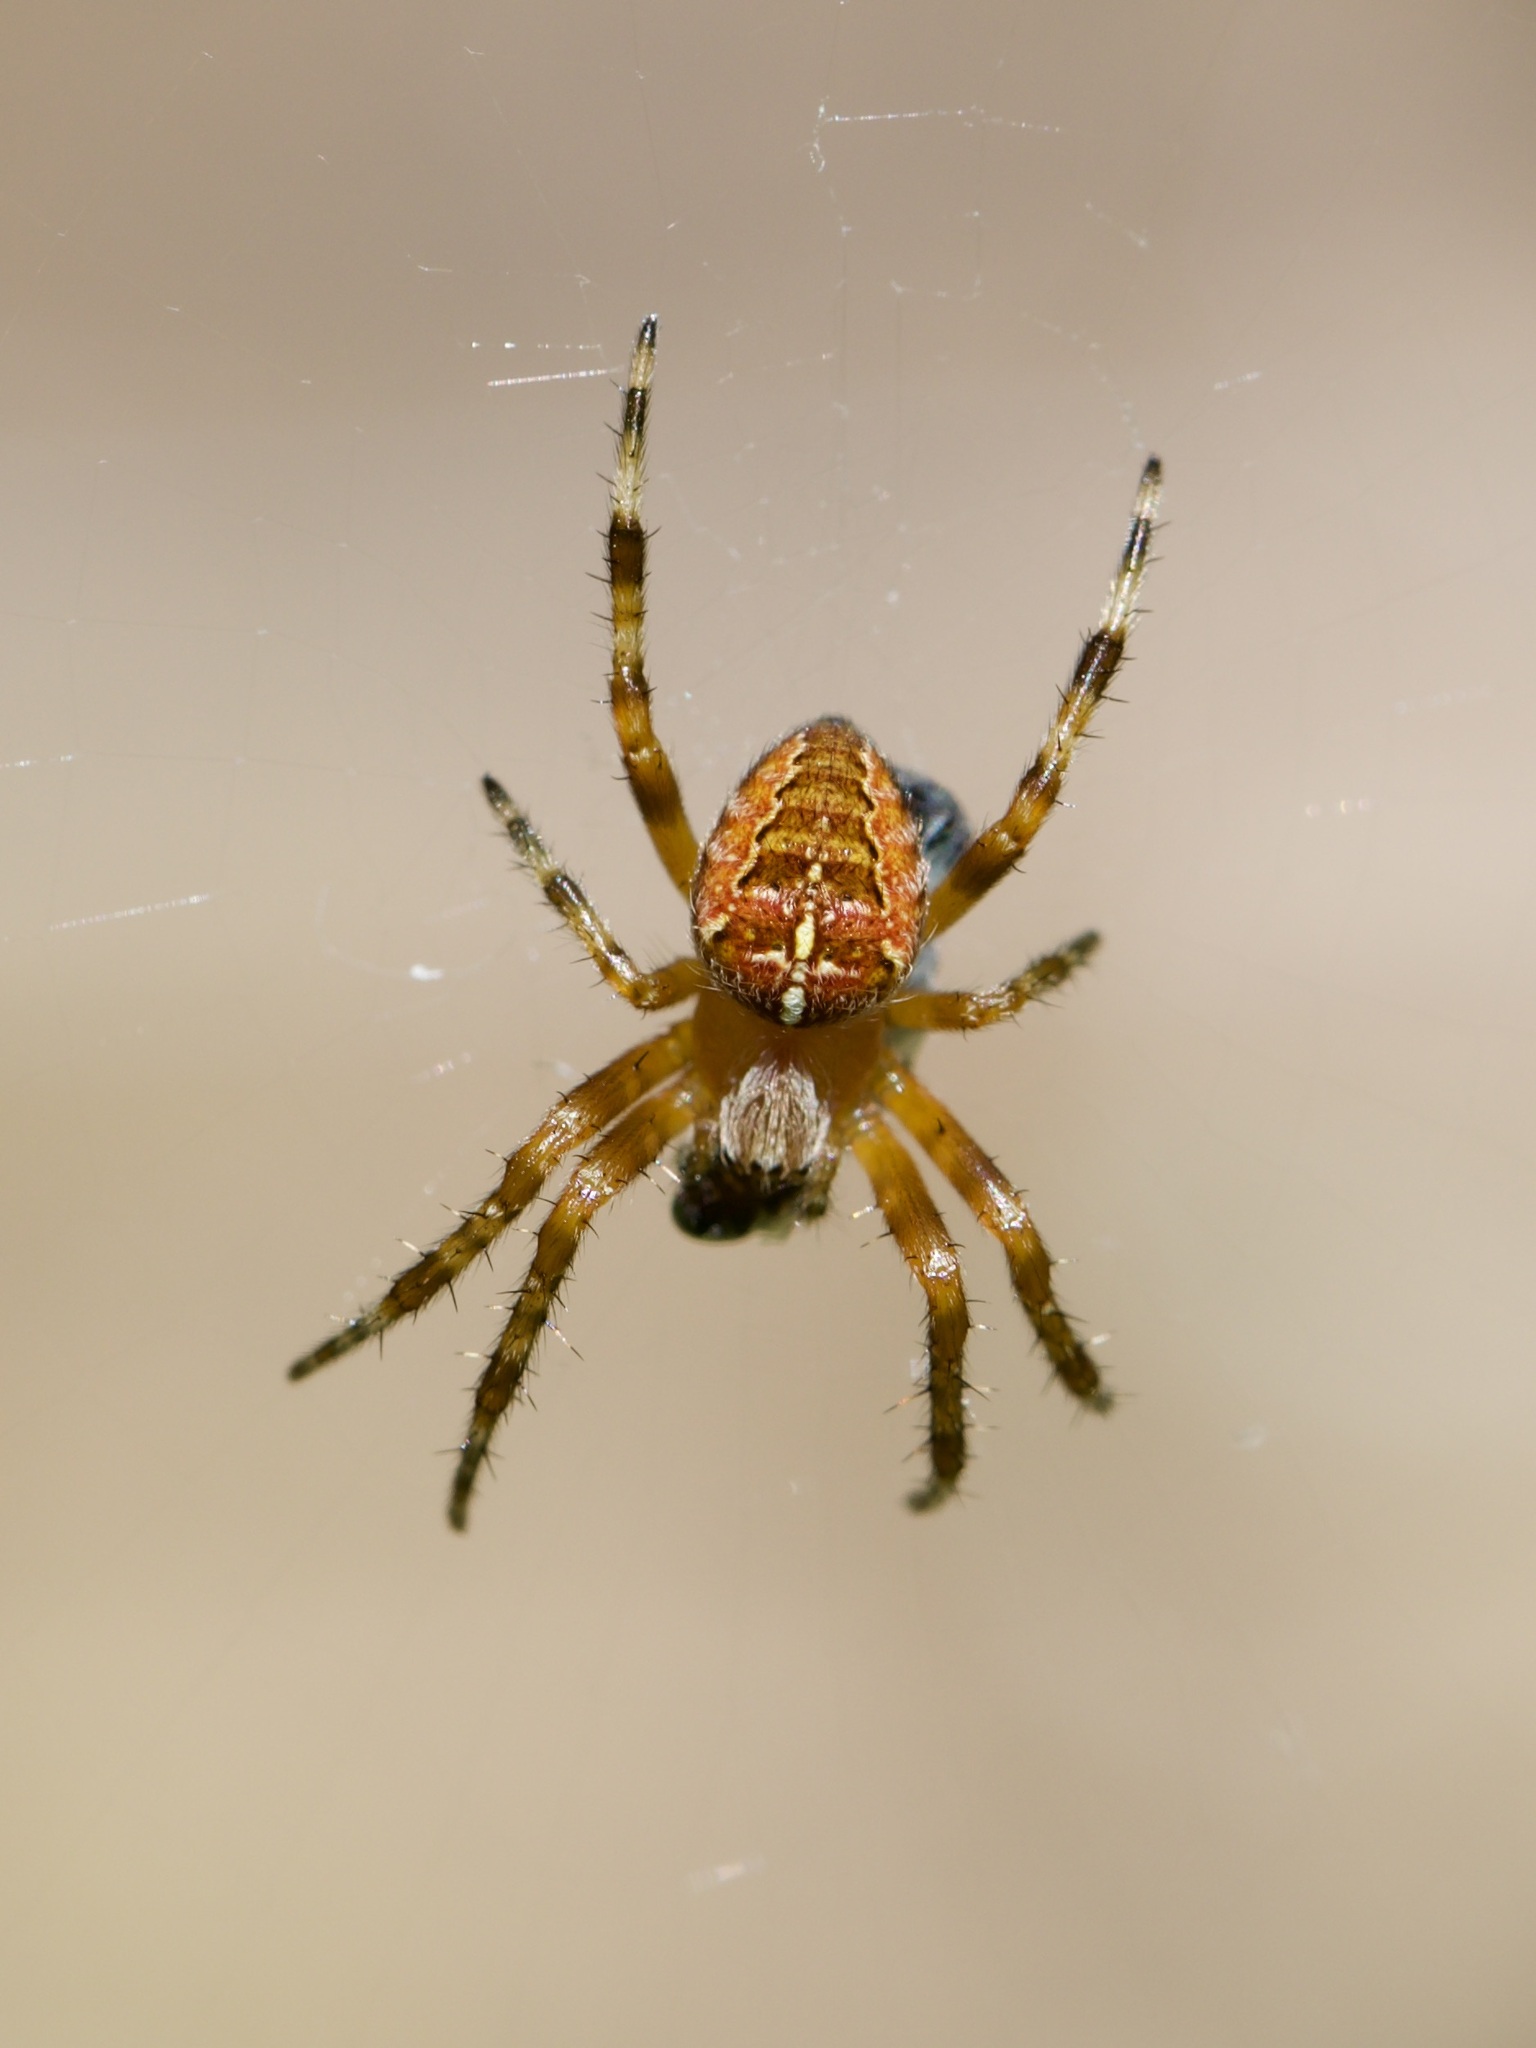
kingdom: Animalia
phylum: Arthropoda
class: Arachnida
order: Araneae
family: Araneidae
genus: Araneus
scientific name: Araneus diadematus
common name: Cross orbweaver
